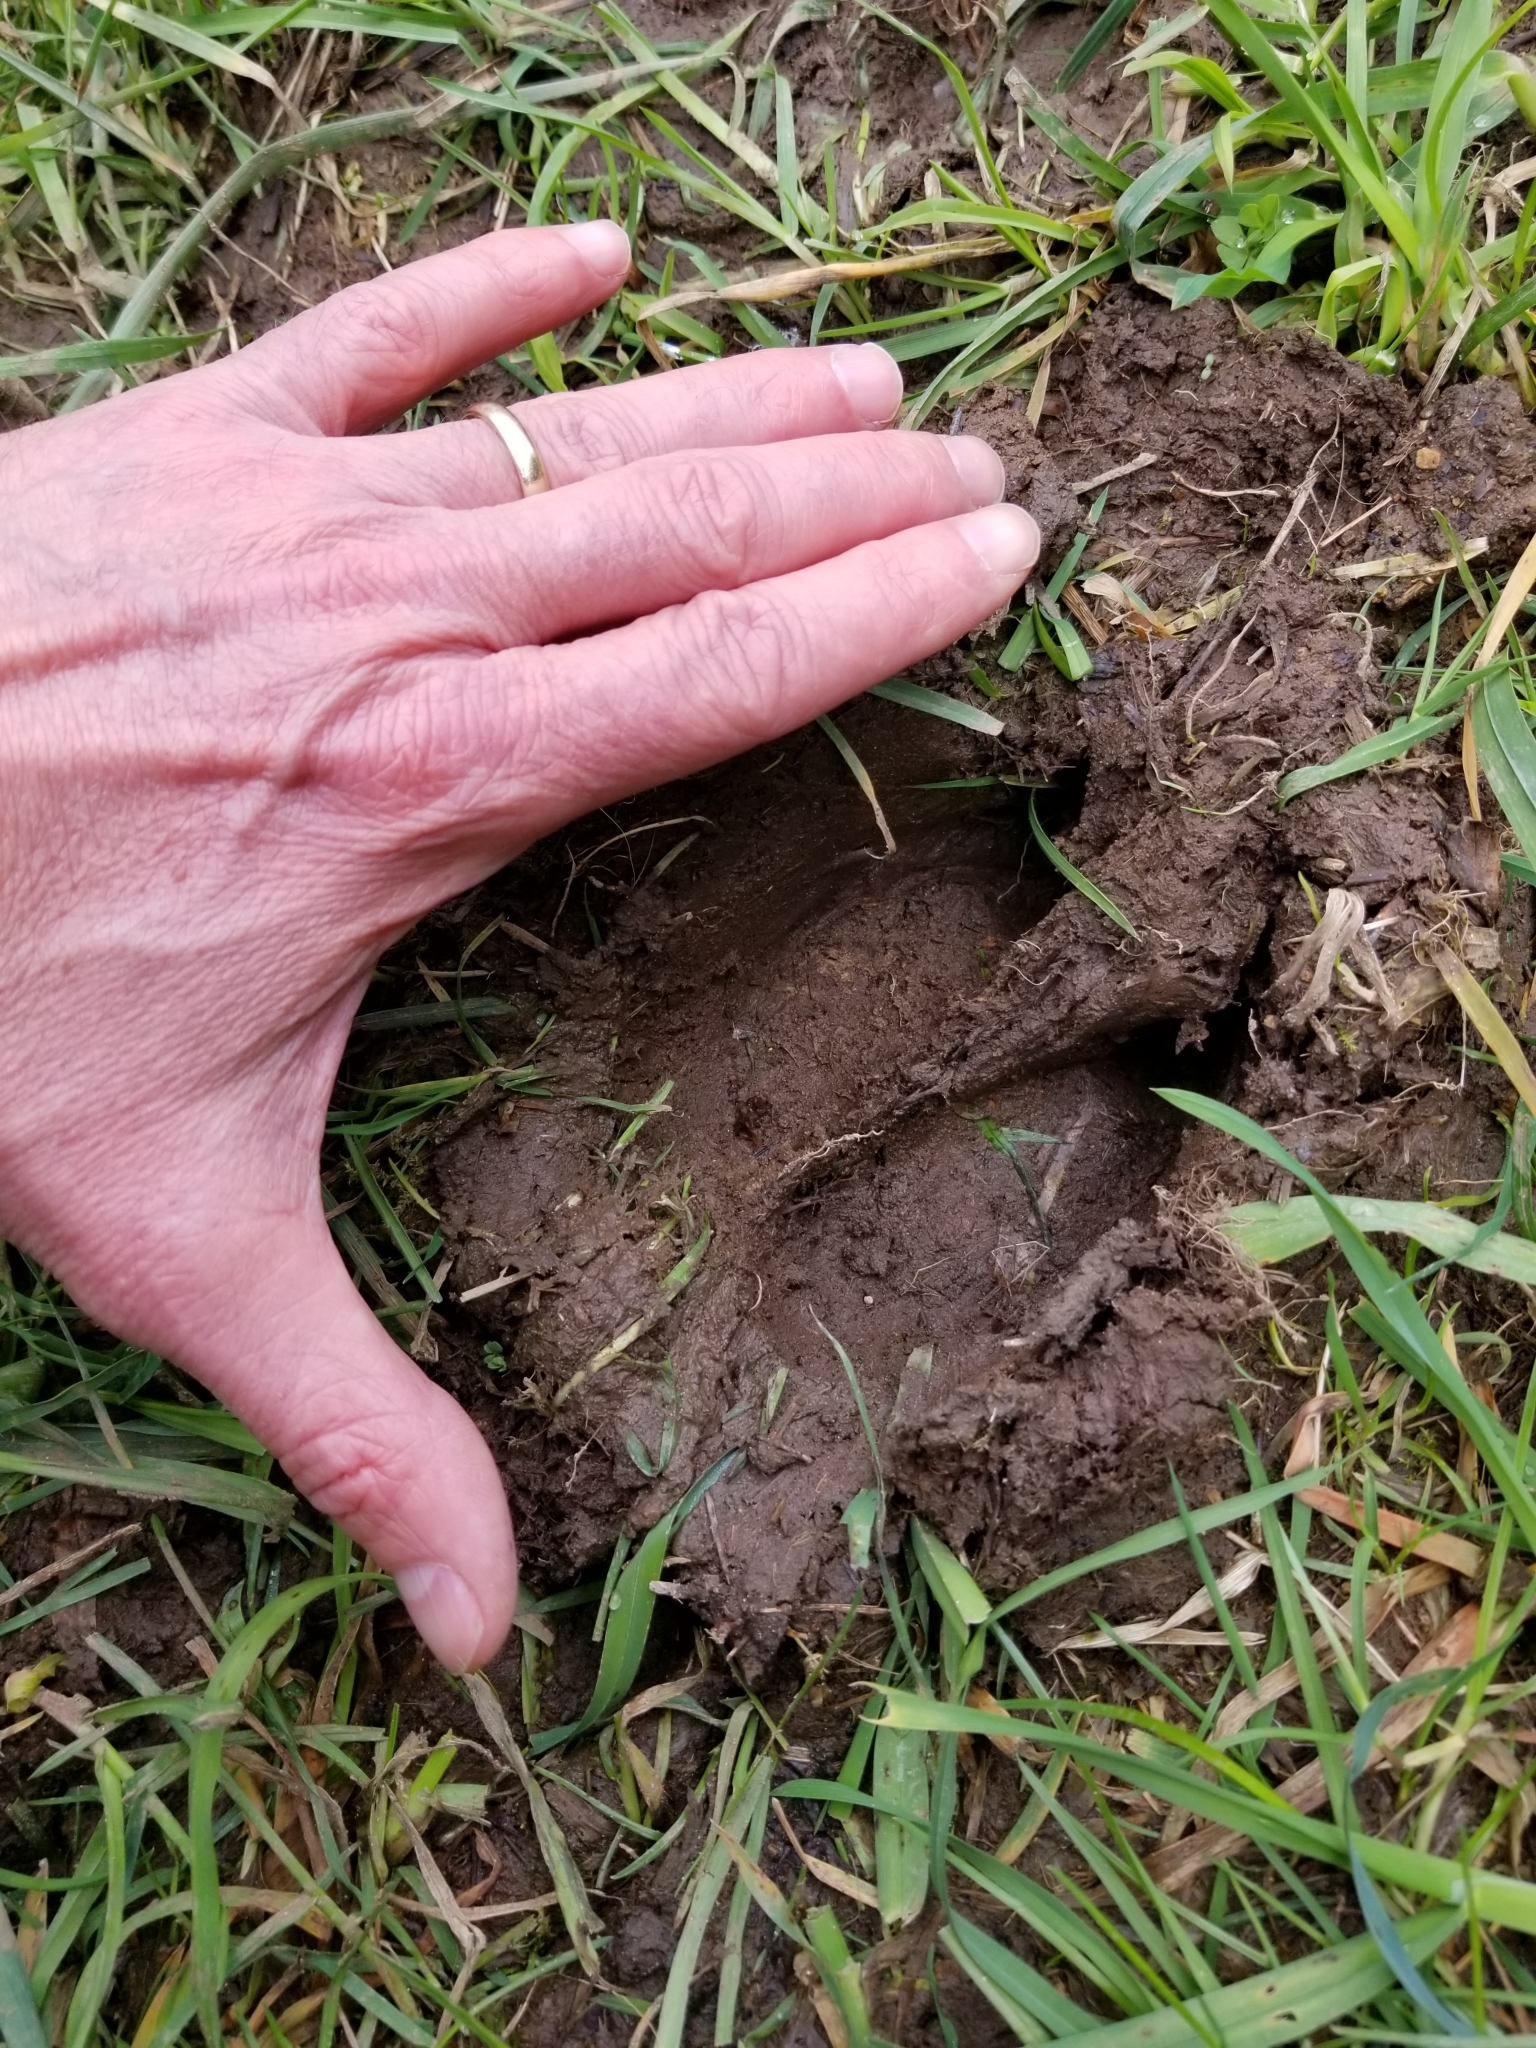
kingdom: Animalia
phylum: Chordata
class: Mammalia
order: Artiodactyla
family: Cervidae
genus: Cervus
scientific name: Cervus elaphus
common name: Red deer
